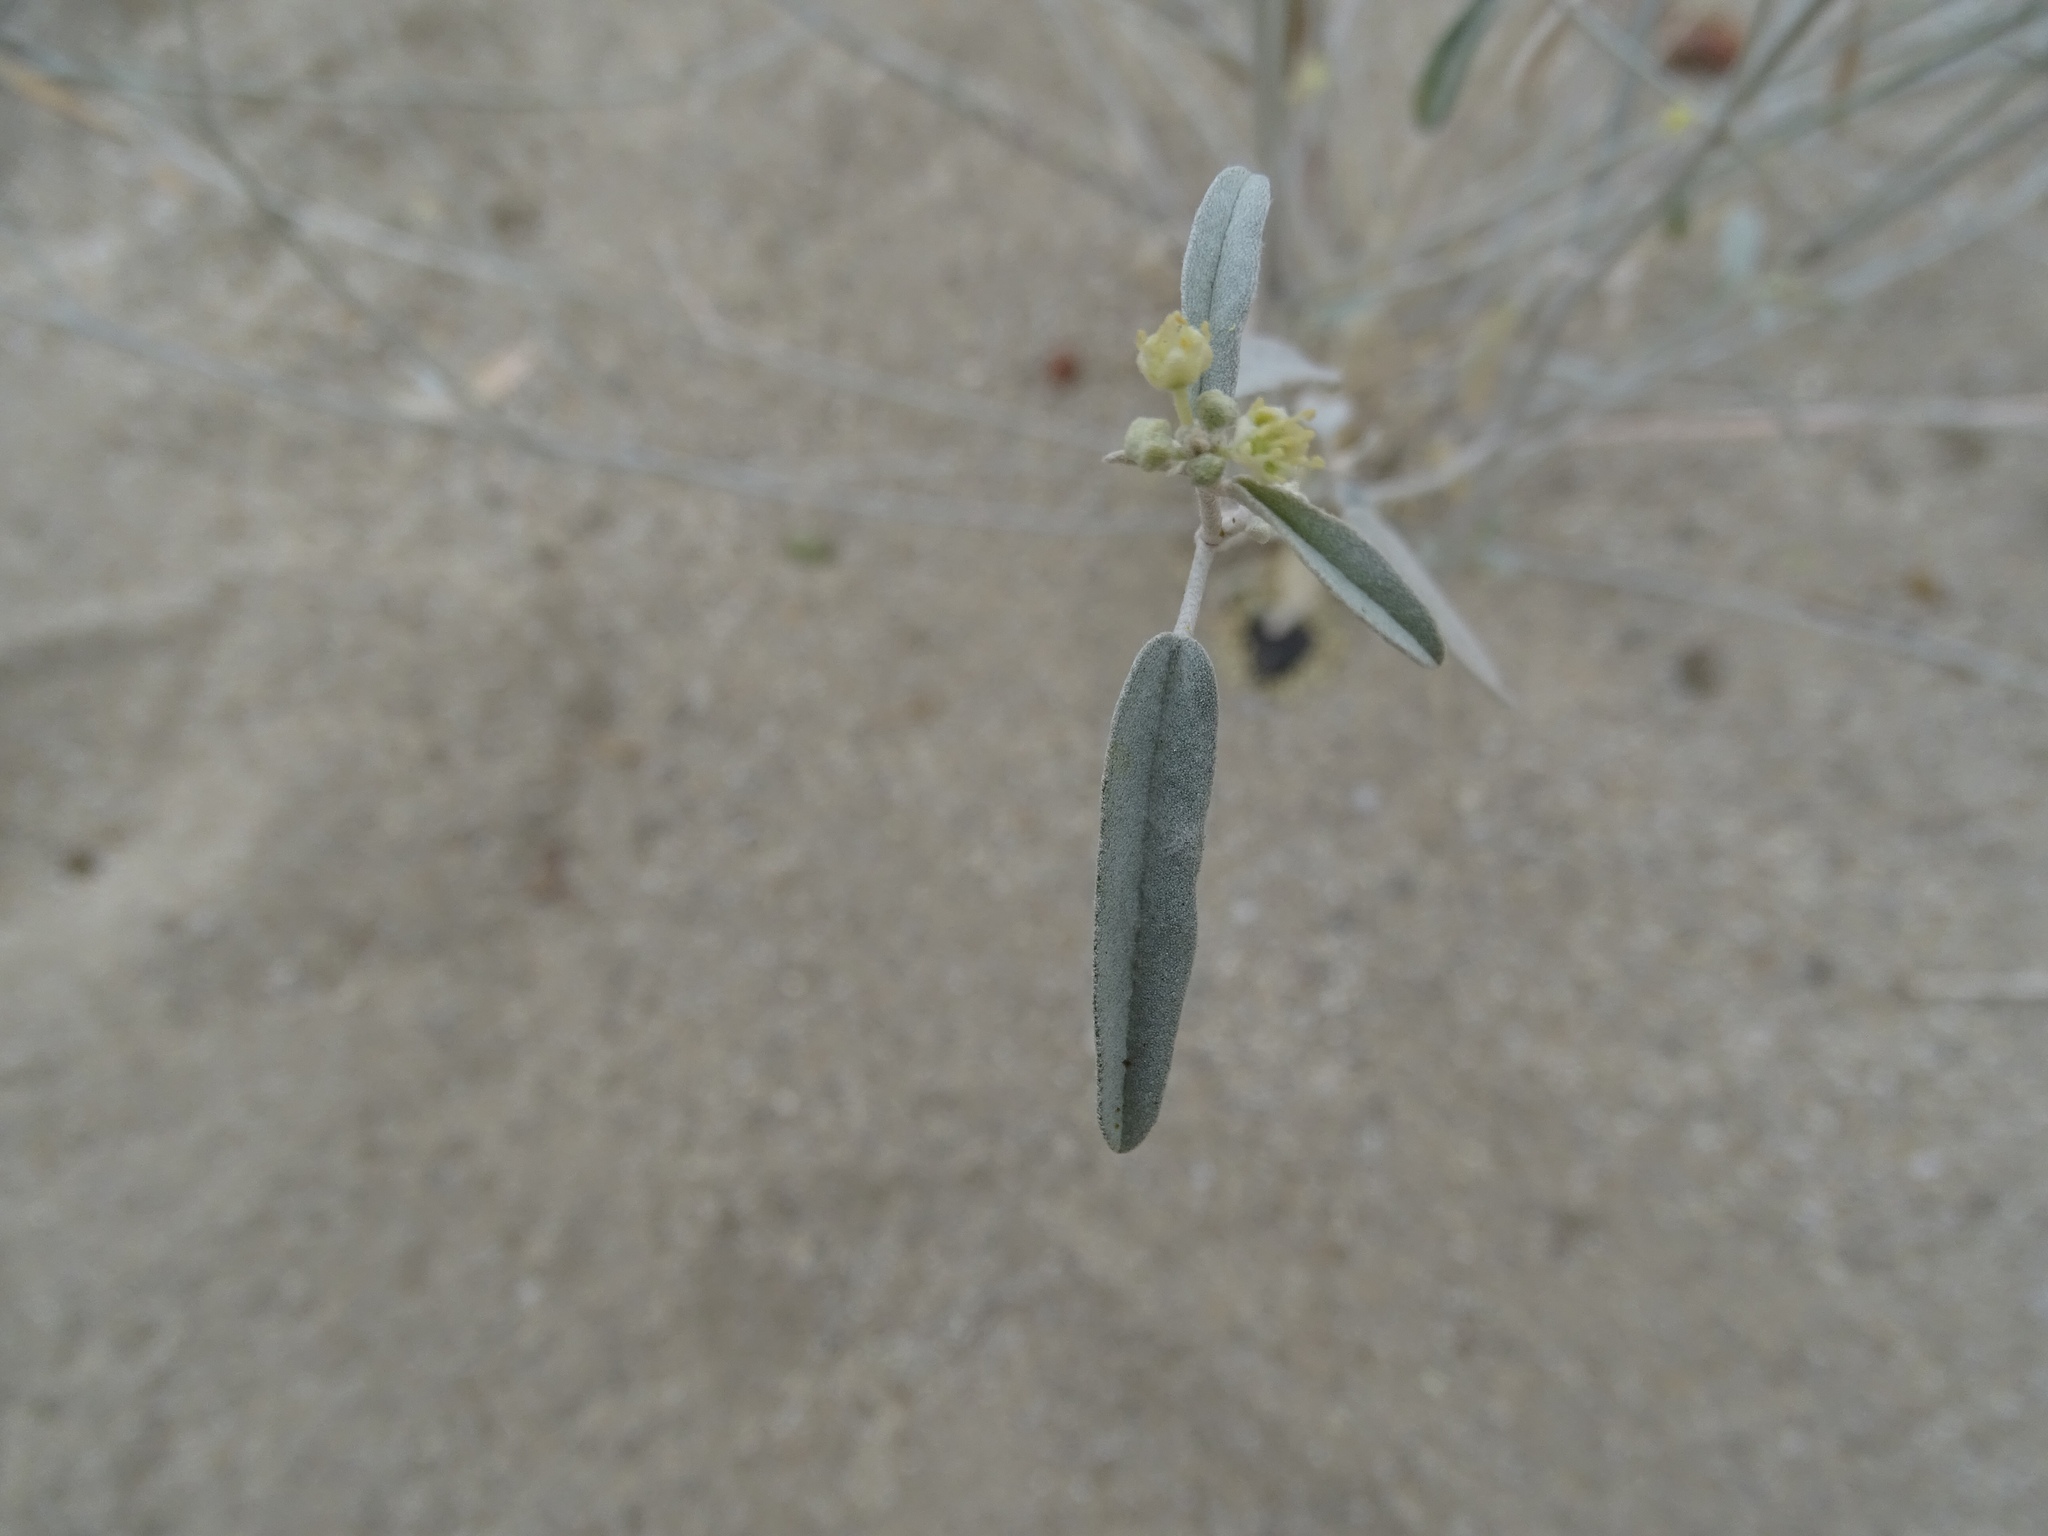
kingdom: Plantae
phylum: Tracheophyta
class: Magnoliopsida
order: Malpighiales
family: Euphorbiaceae
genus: Croton
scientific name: Croton californicus
